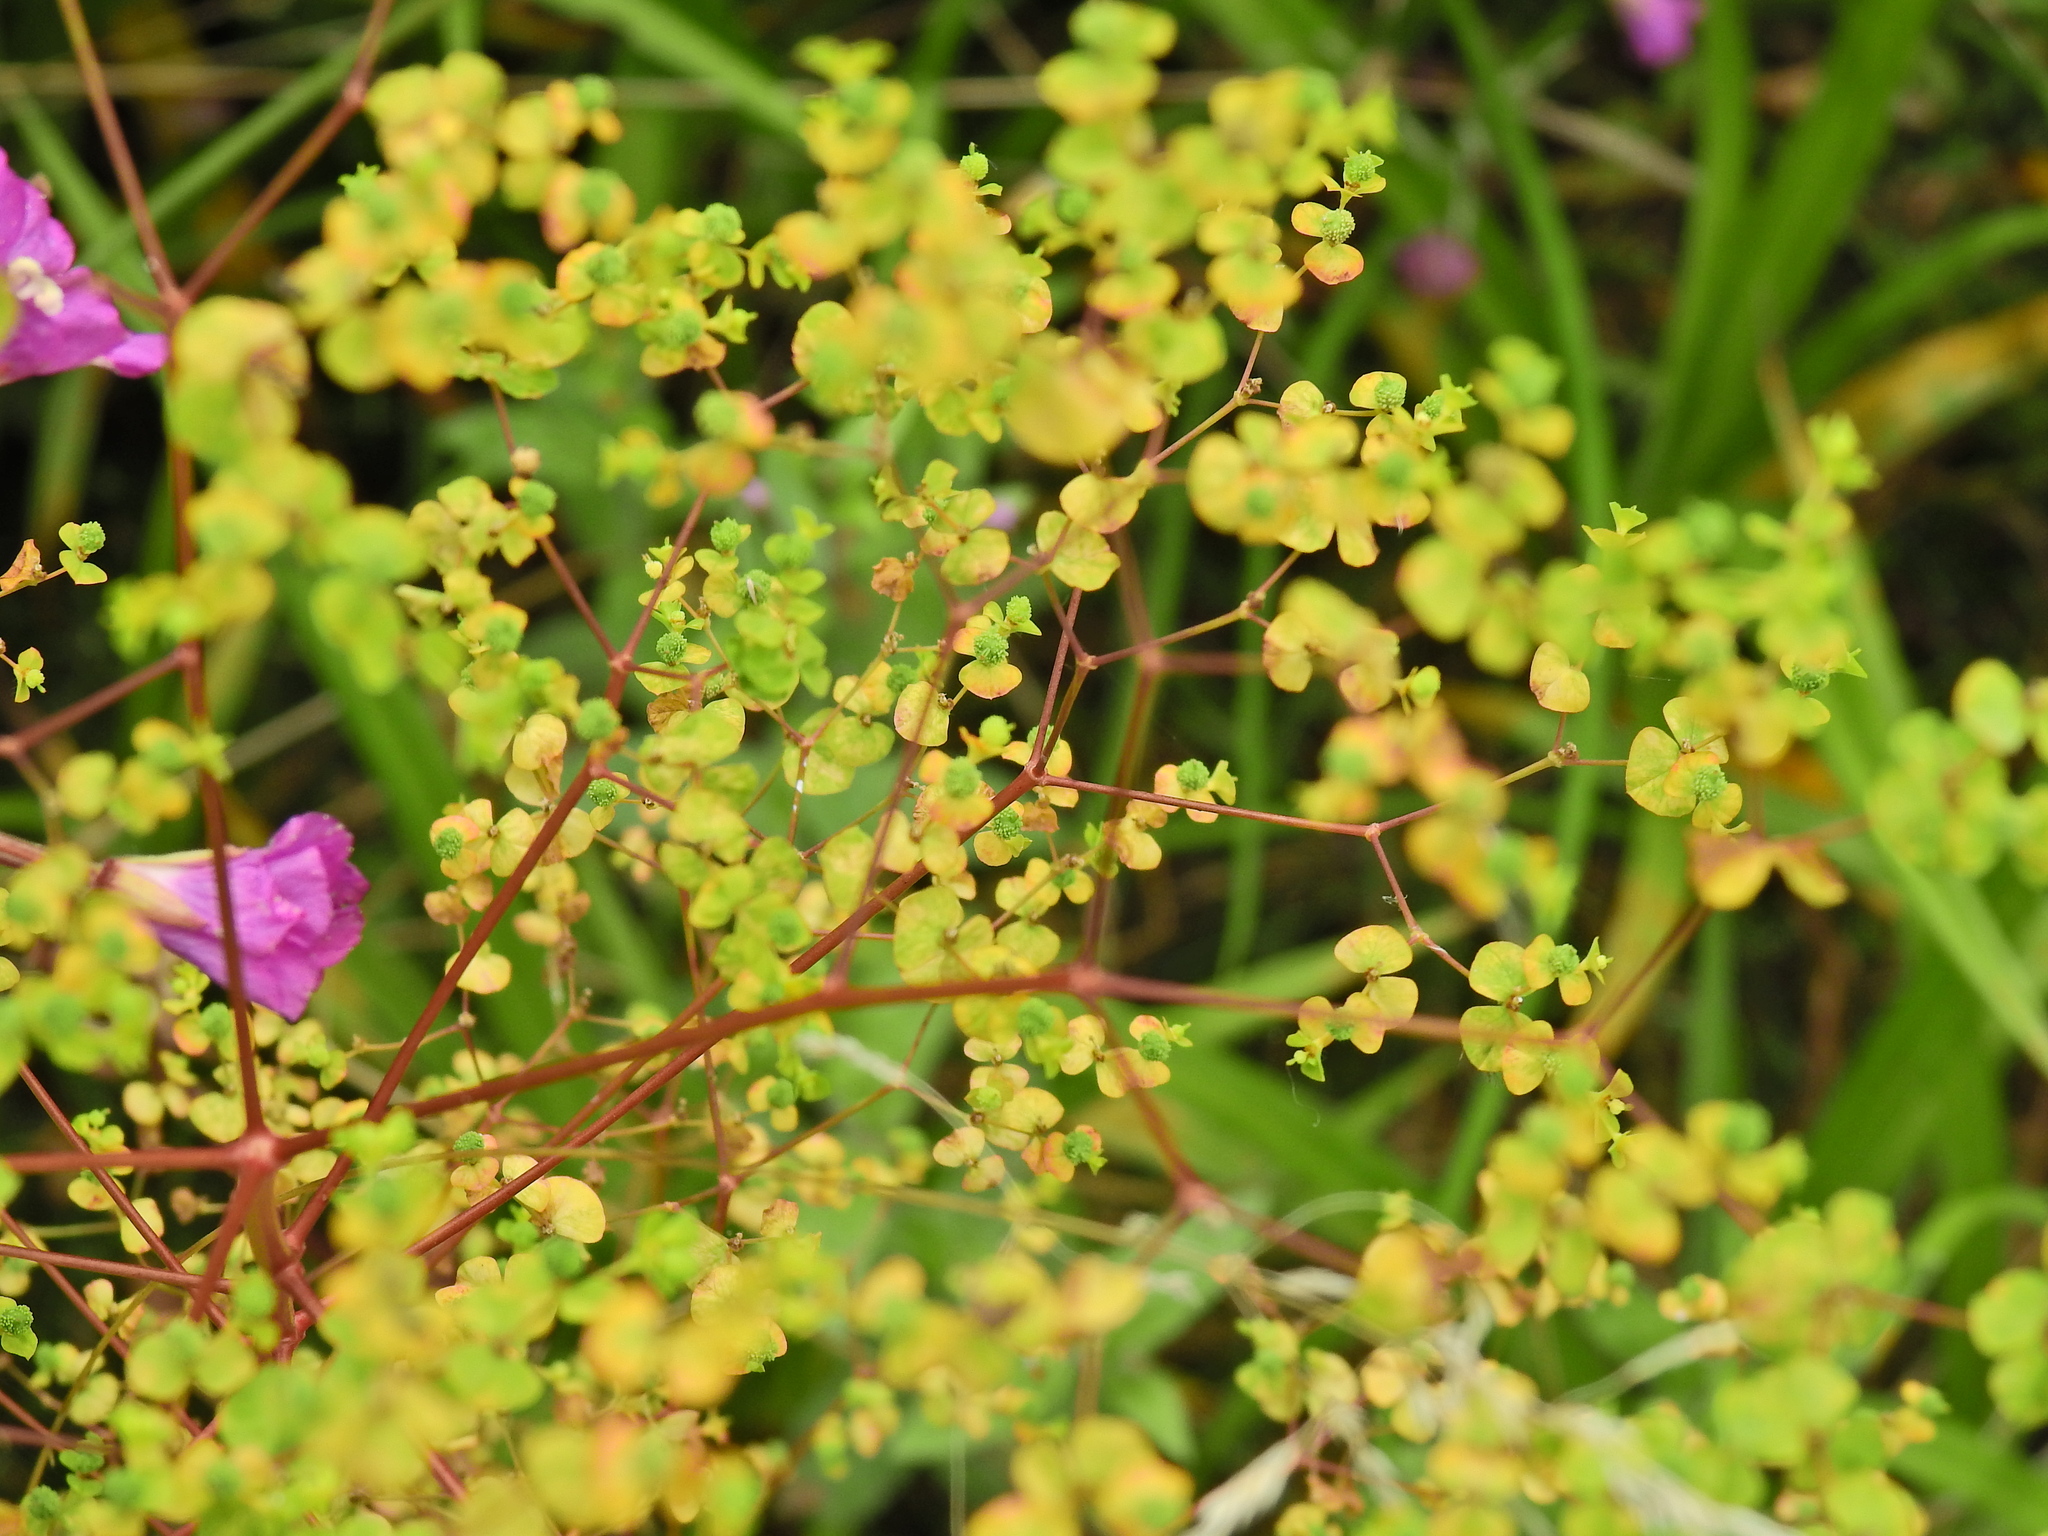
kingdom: Plantae
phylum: Tracheophyta
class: Magnoliopsida
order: Malpighiales
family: Euphorbiaceae
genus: Euphorbia
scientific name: Euphorbia stricta
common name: Upright spurge
